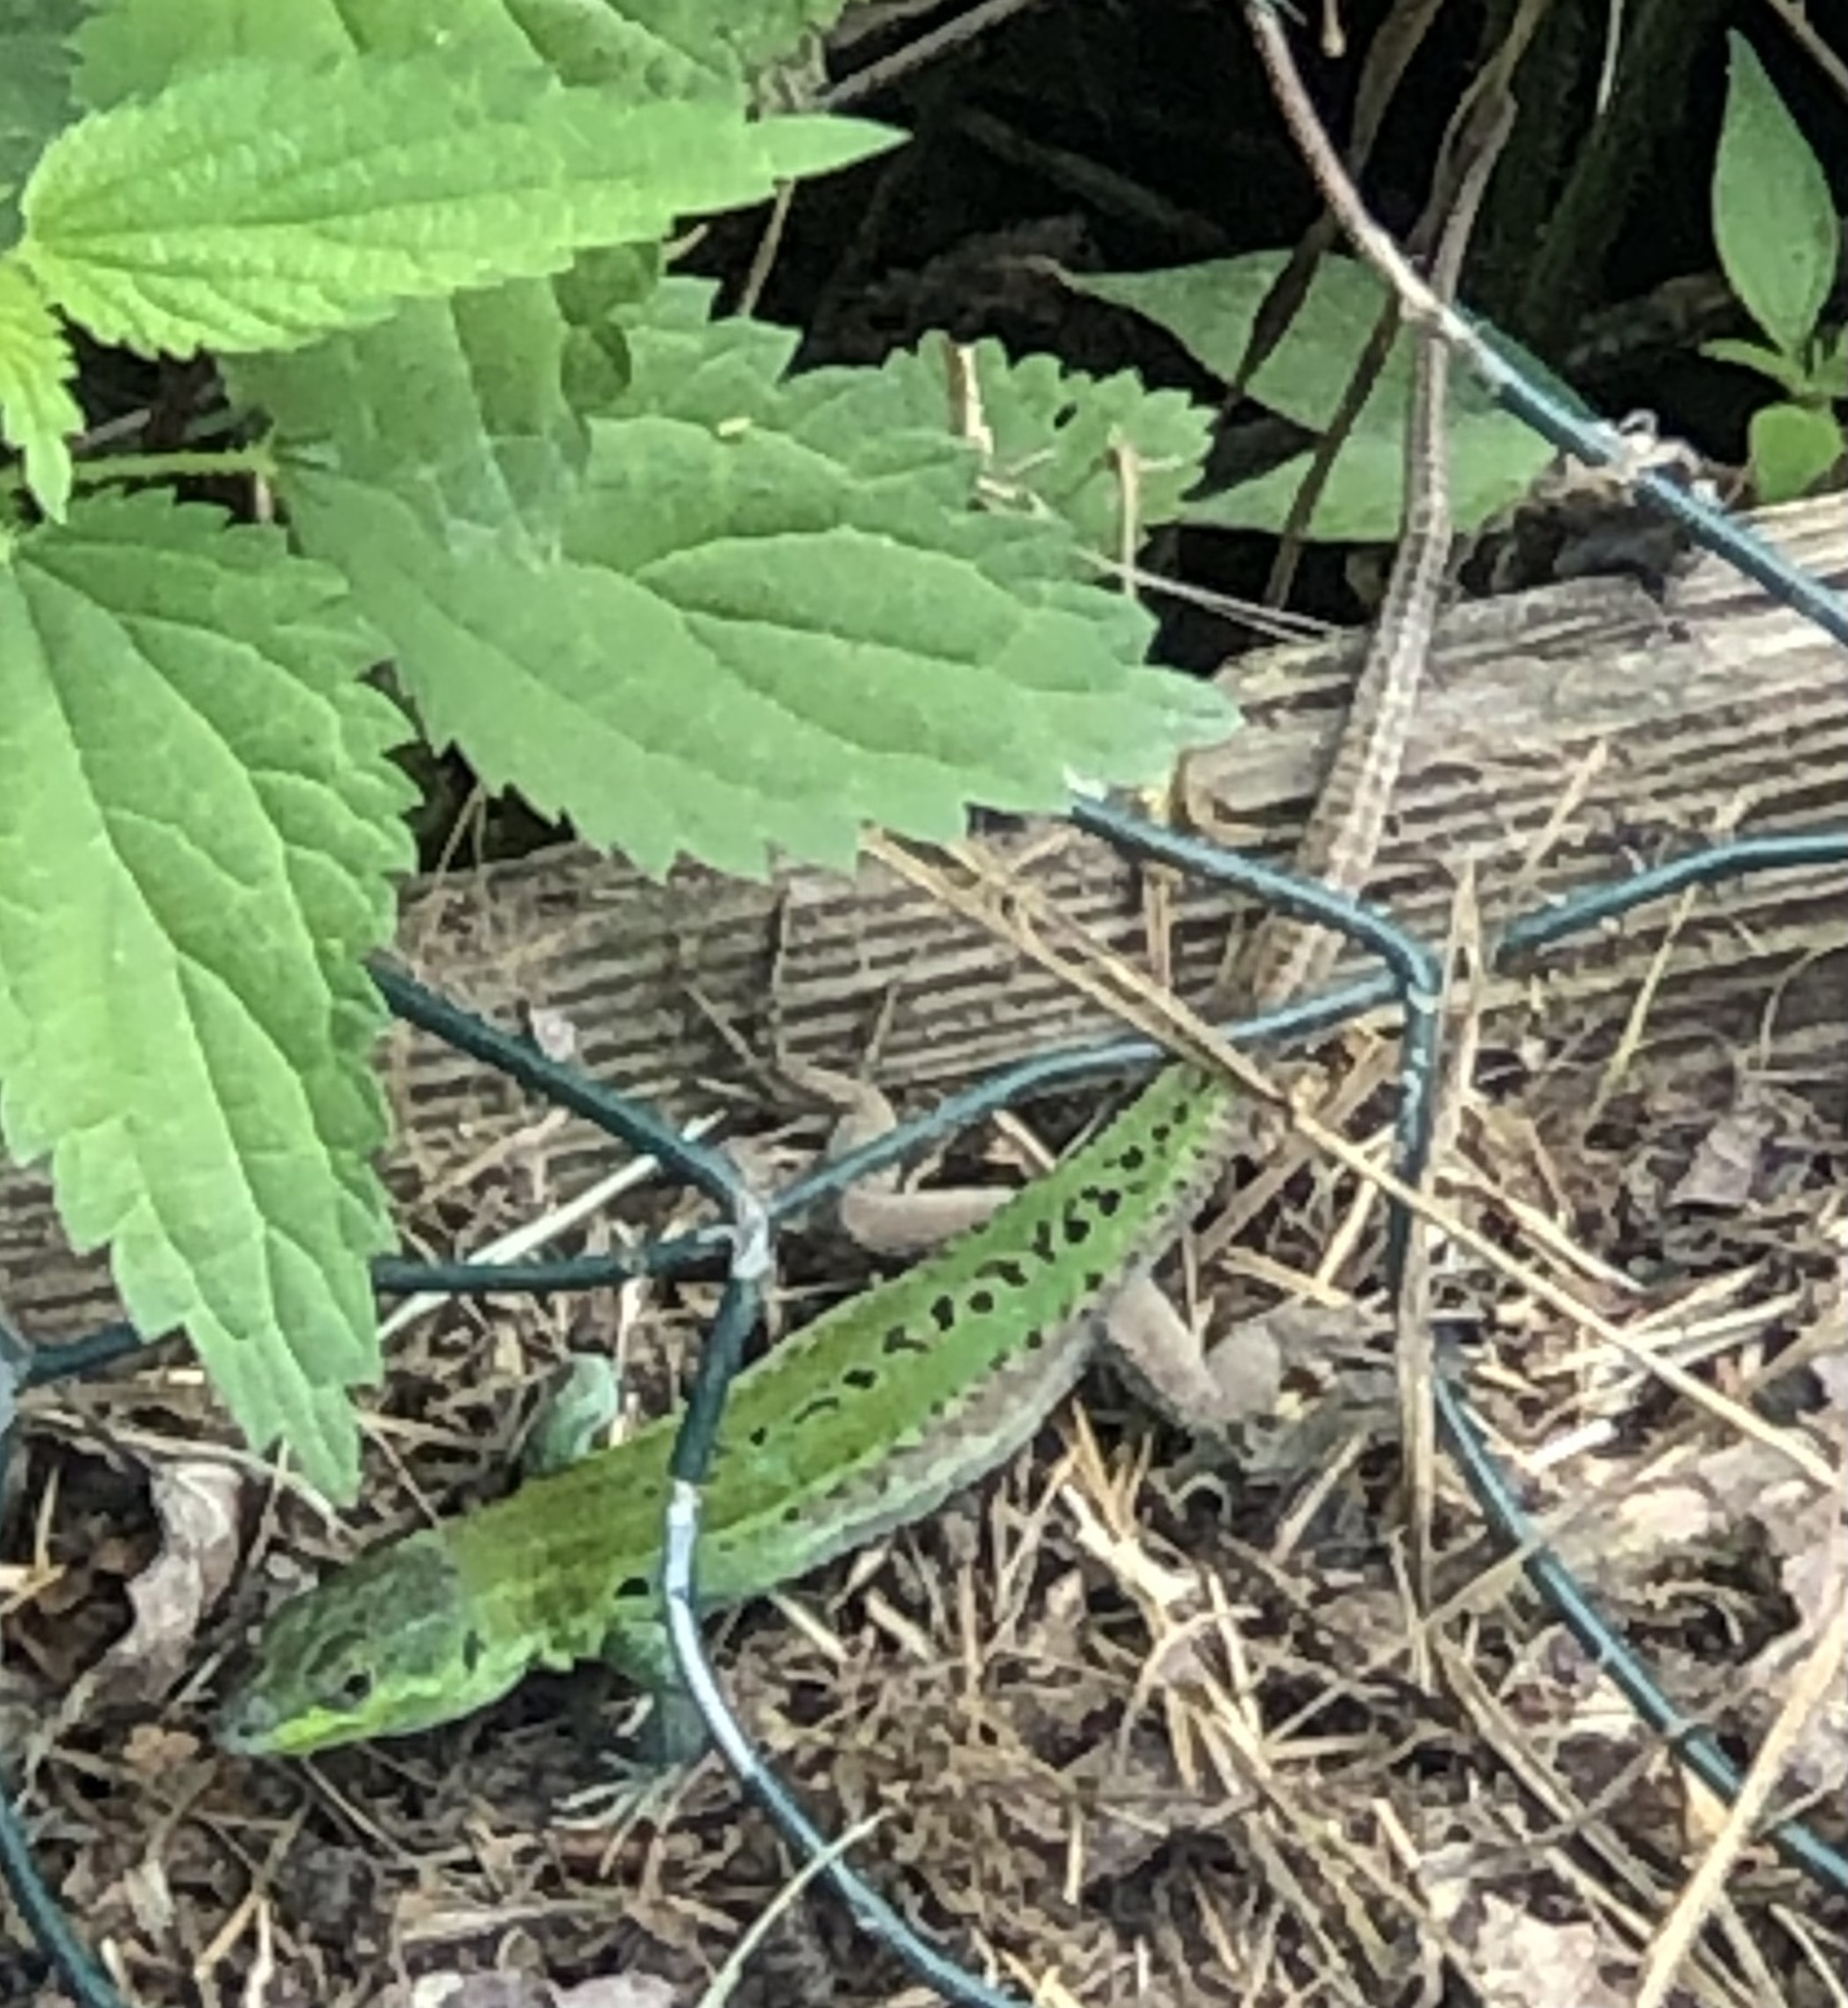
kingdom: Animalia
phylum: Chordata
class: Squamata
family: Lacertidae
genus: Podarcis
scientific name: Podarcis siculus
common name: Italian wall lizard
